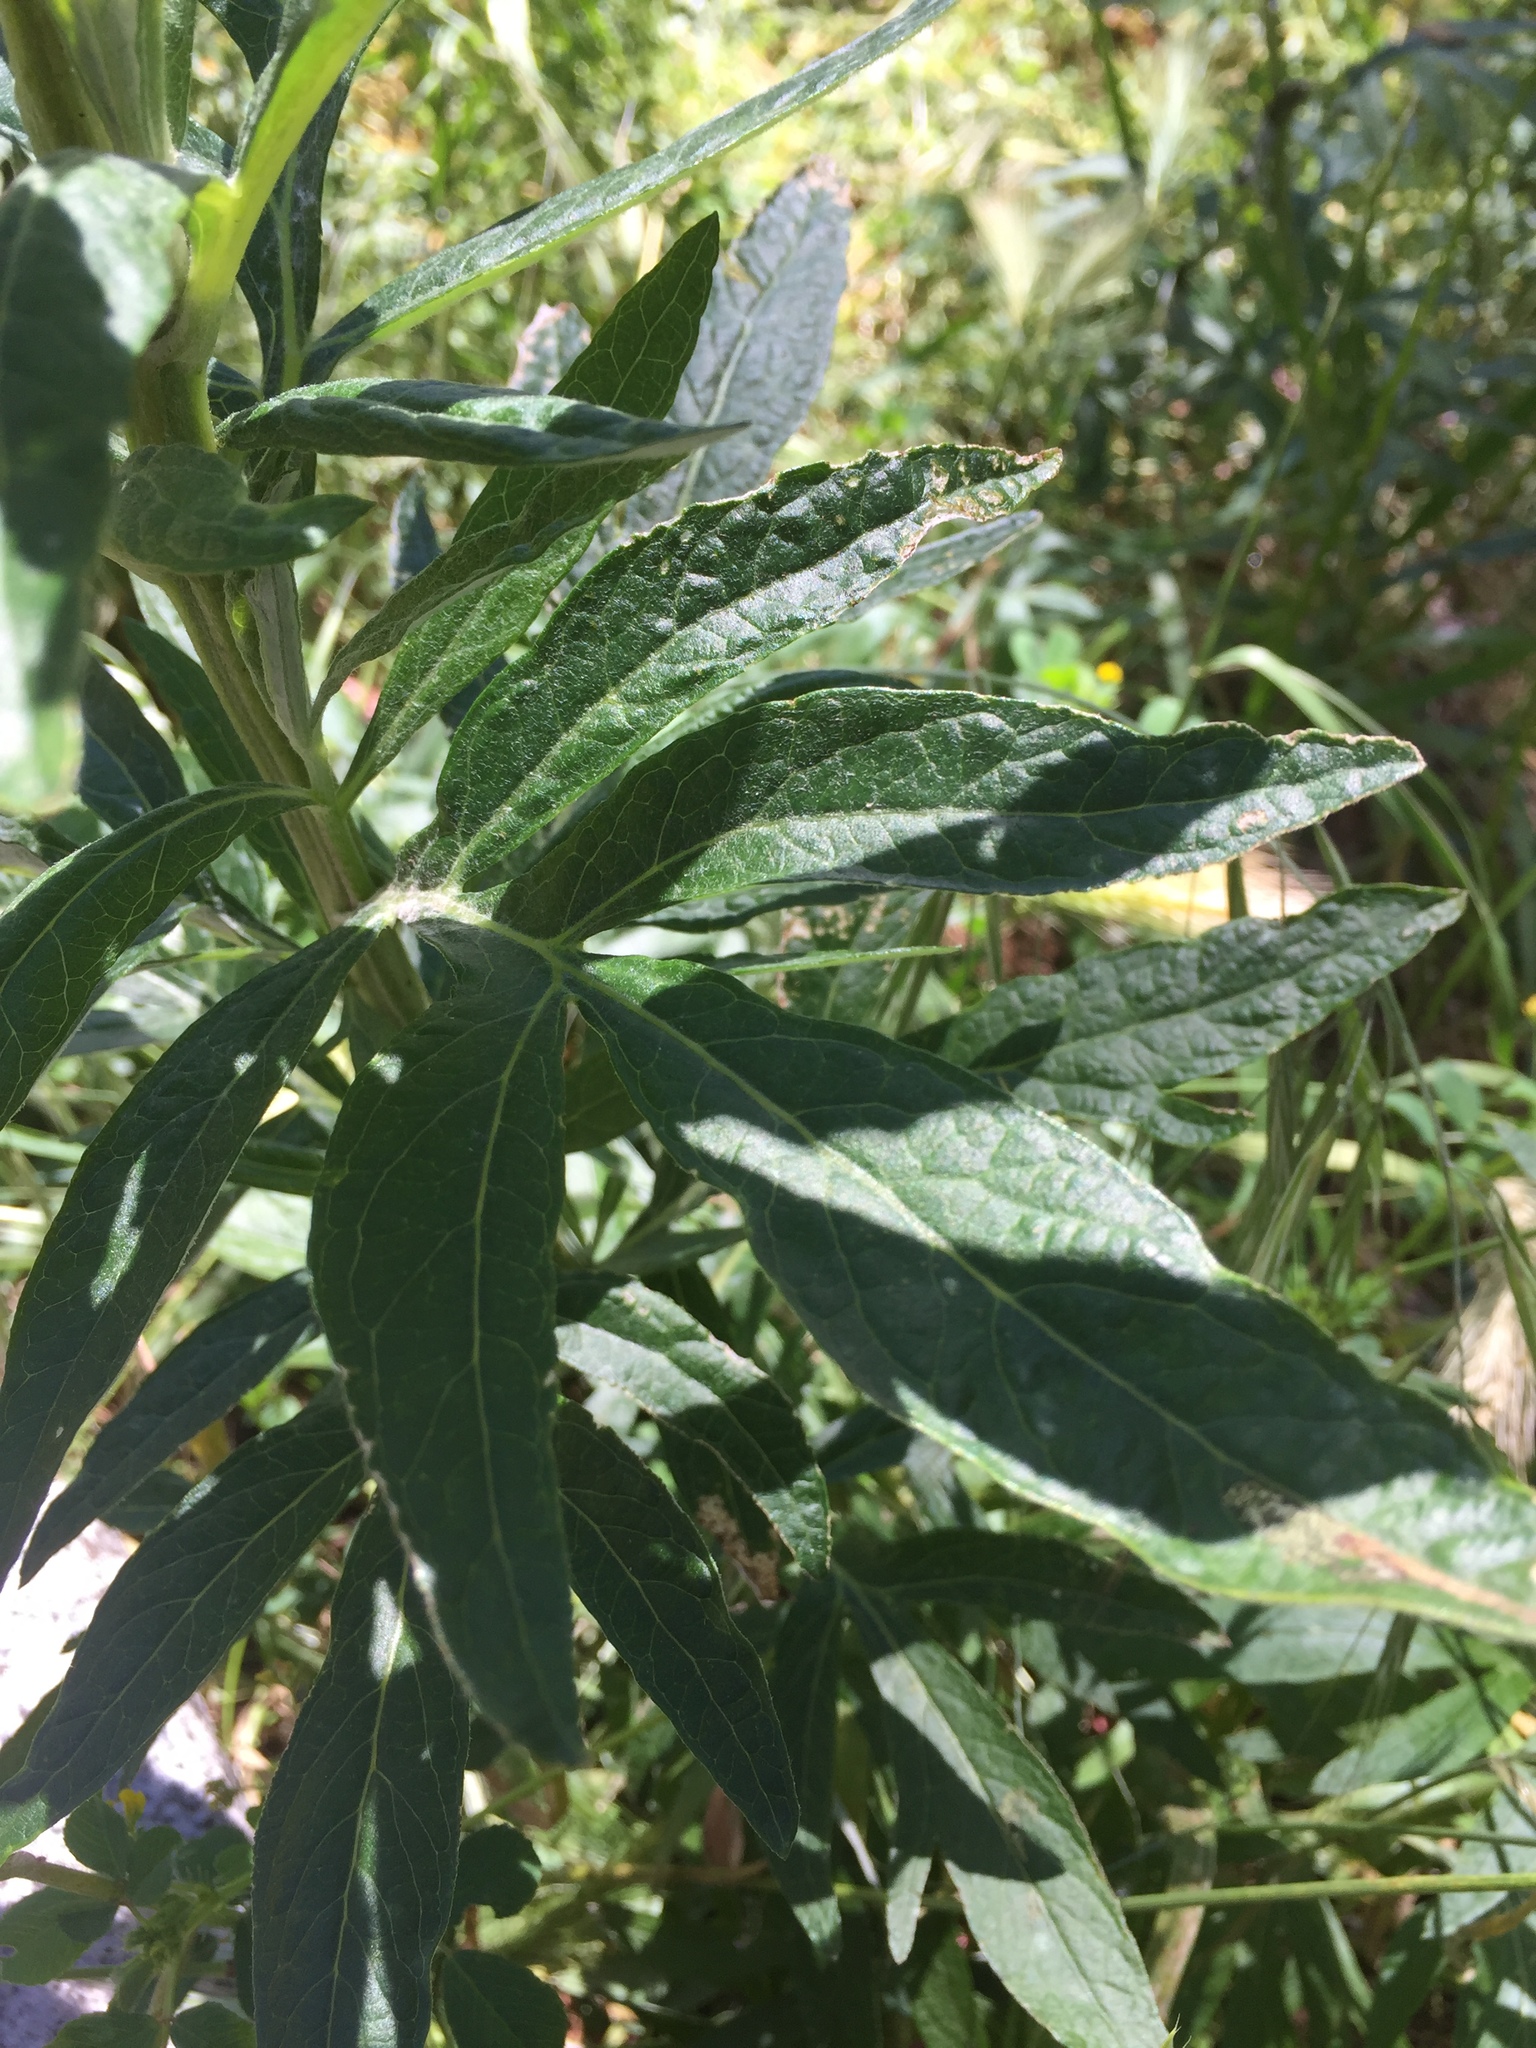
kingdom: Plantae
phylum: Tracheophyta
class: Magnoliopsida
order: Asterales
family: Asteraceae
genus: Artemisia
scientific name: Artemisia douglasiana
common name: Northwest mugwort
